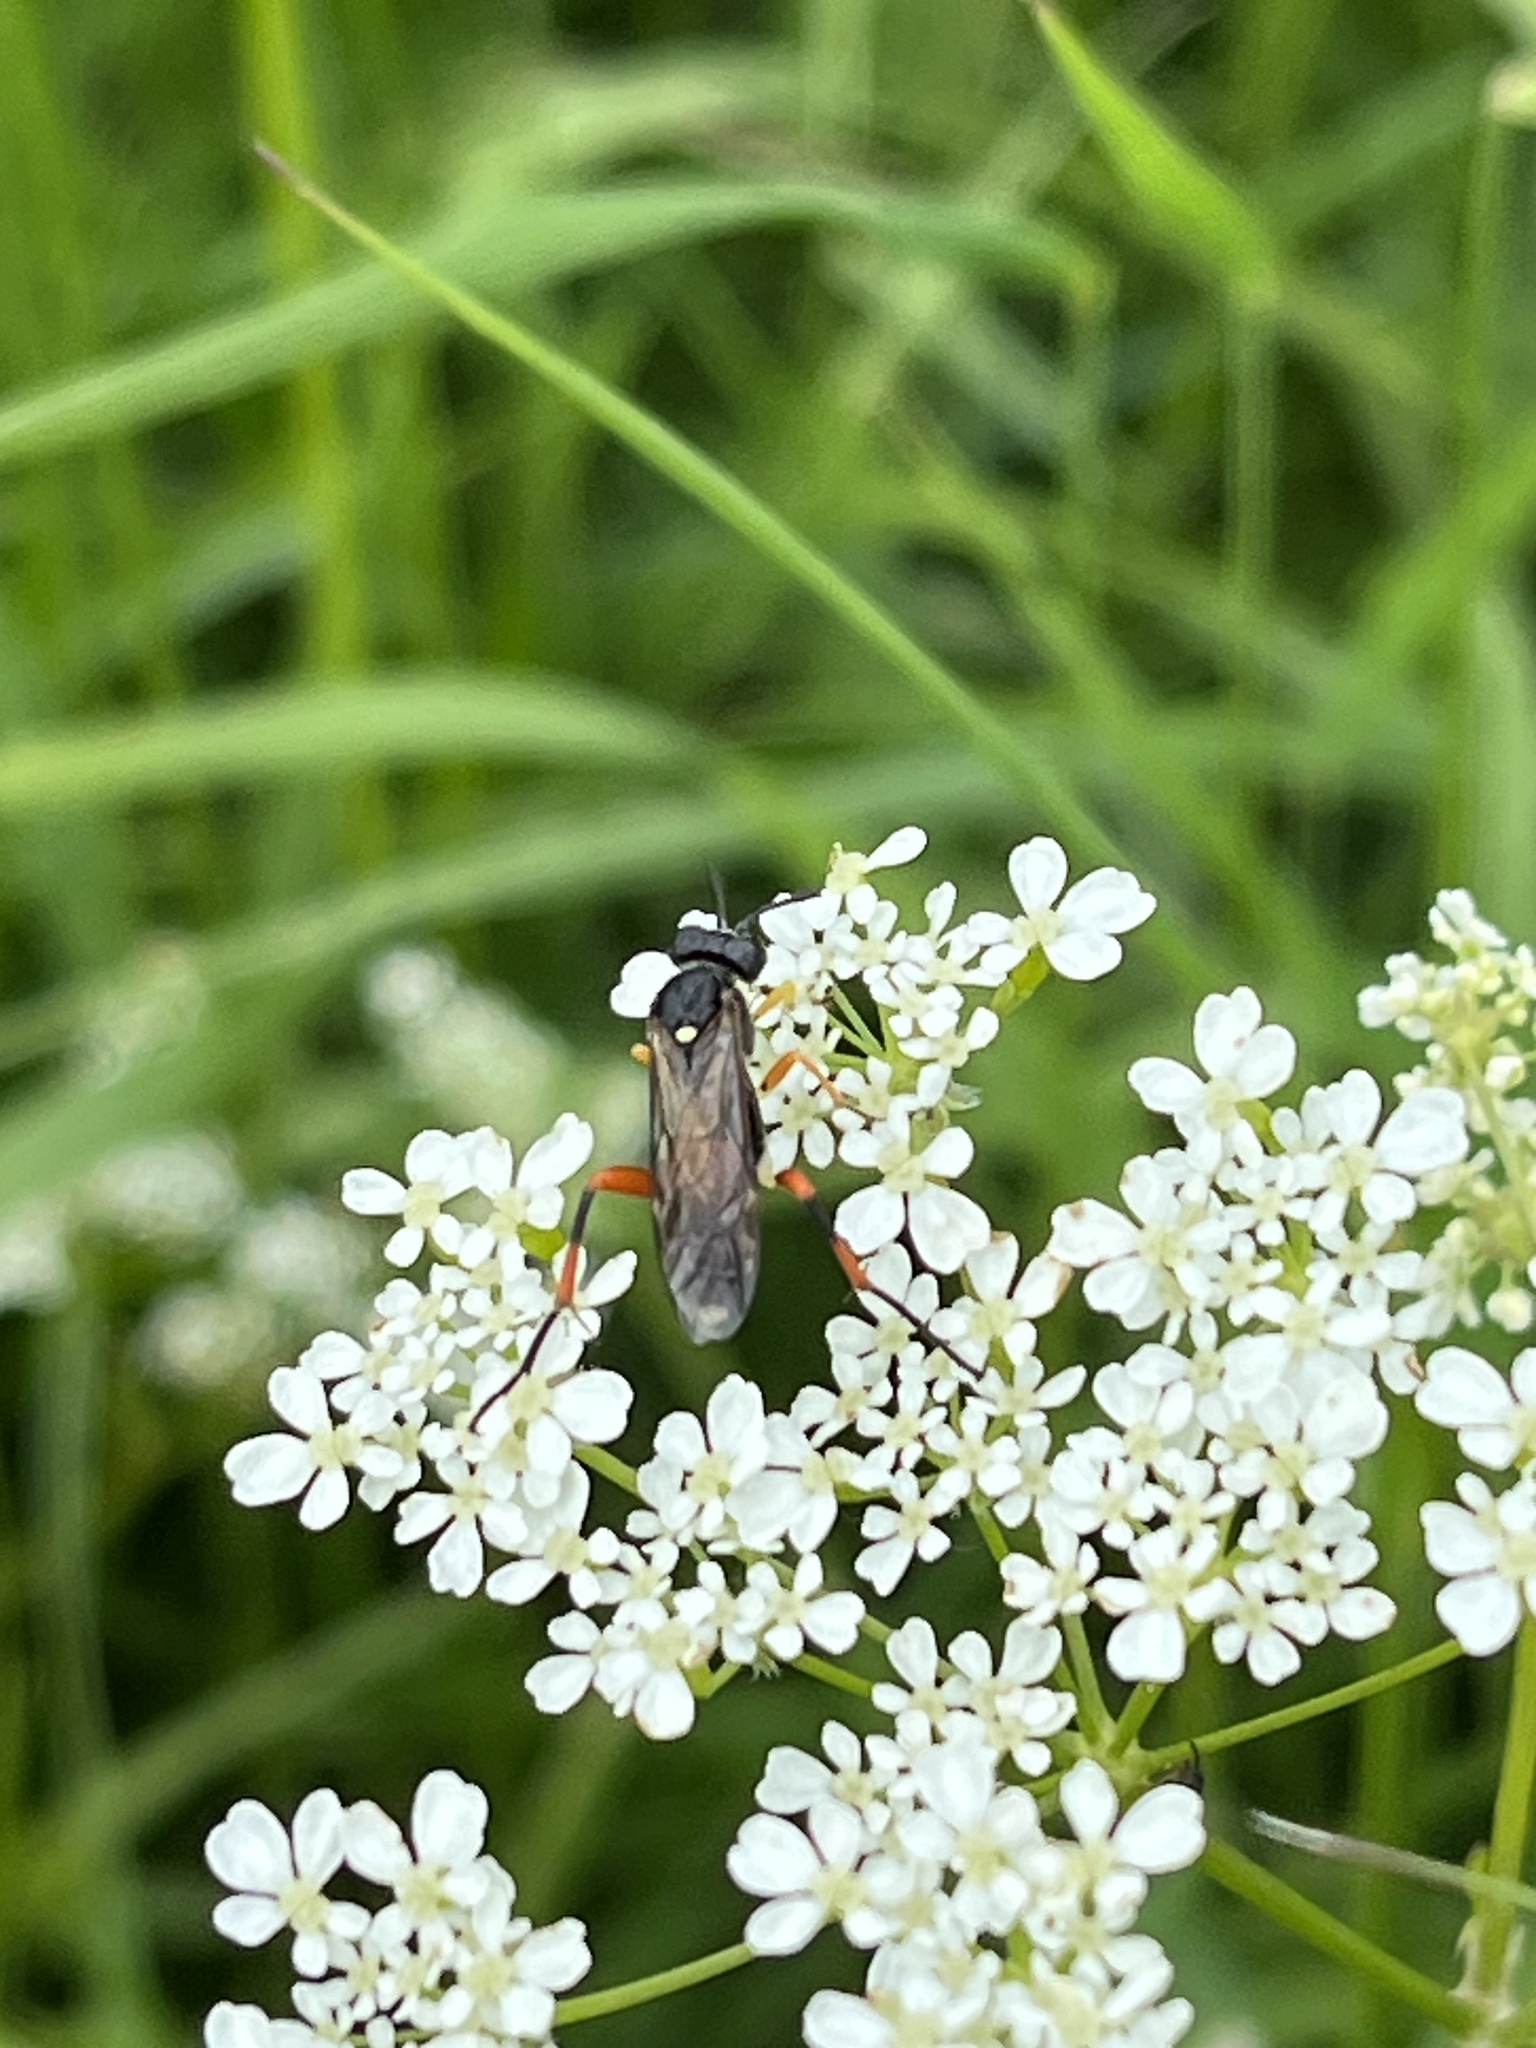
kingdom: Animalia
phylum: Arthropoda
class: Insecta
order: Hymenoptera
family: Tenthredinidae
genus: Macrophya
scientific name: Macrophya rufipes
